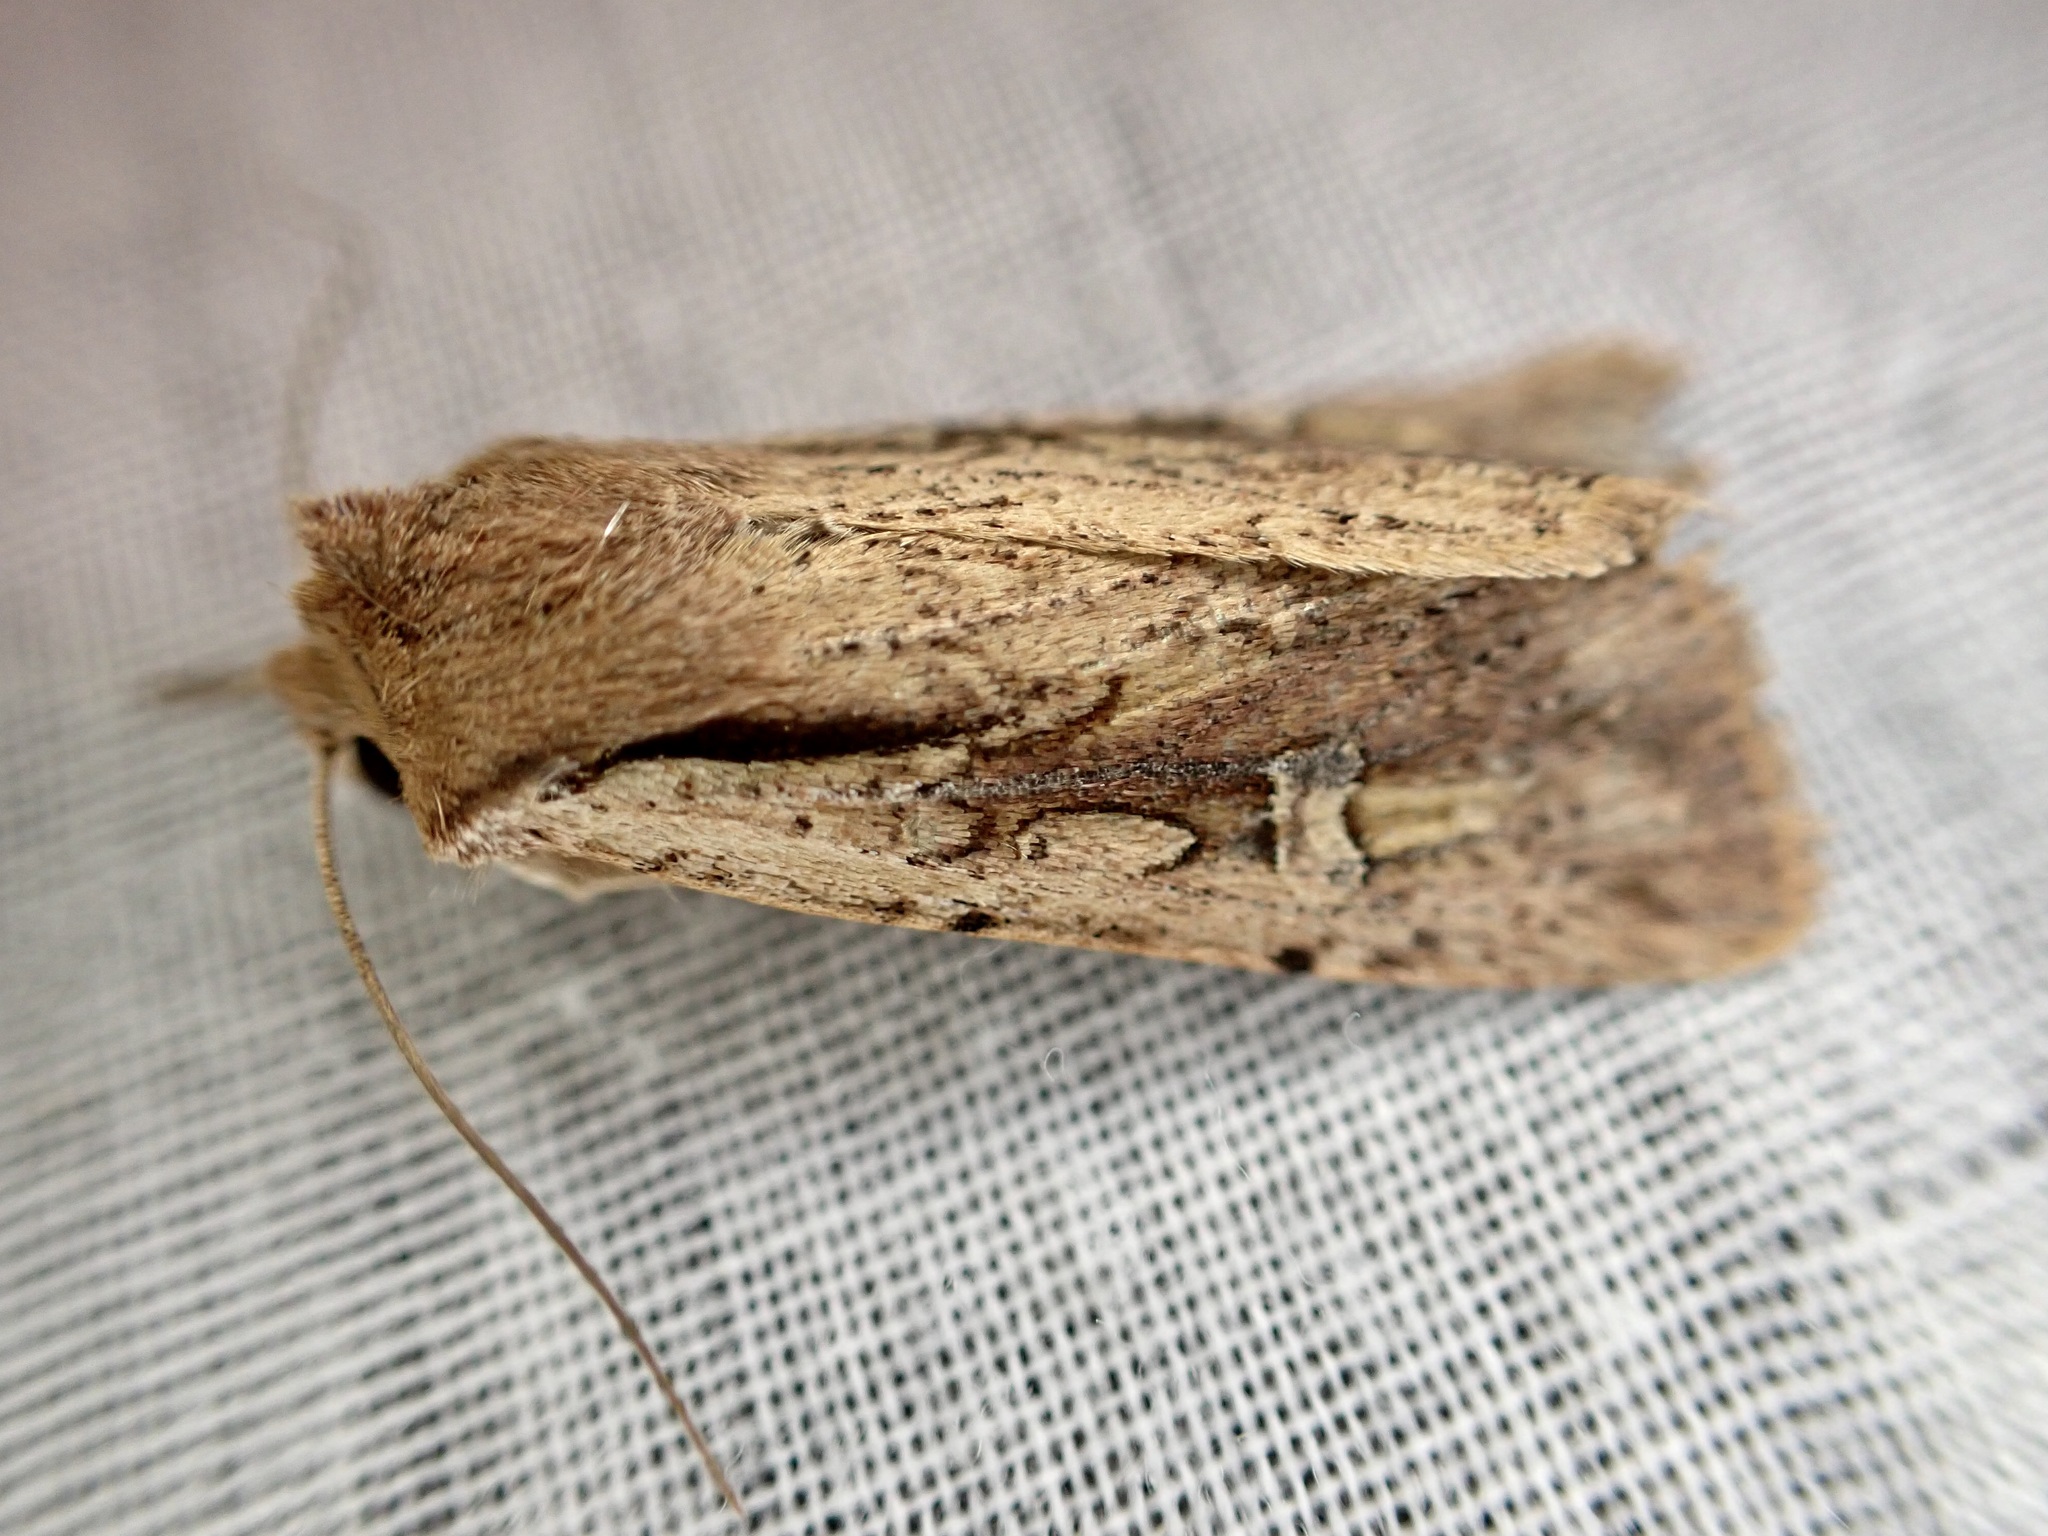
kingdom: Animalia
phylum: Arthropoda
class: Insecta
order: Lepidoptera
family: Noctuidae
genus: Ichneutica
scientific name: Ichneutica atristriga
